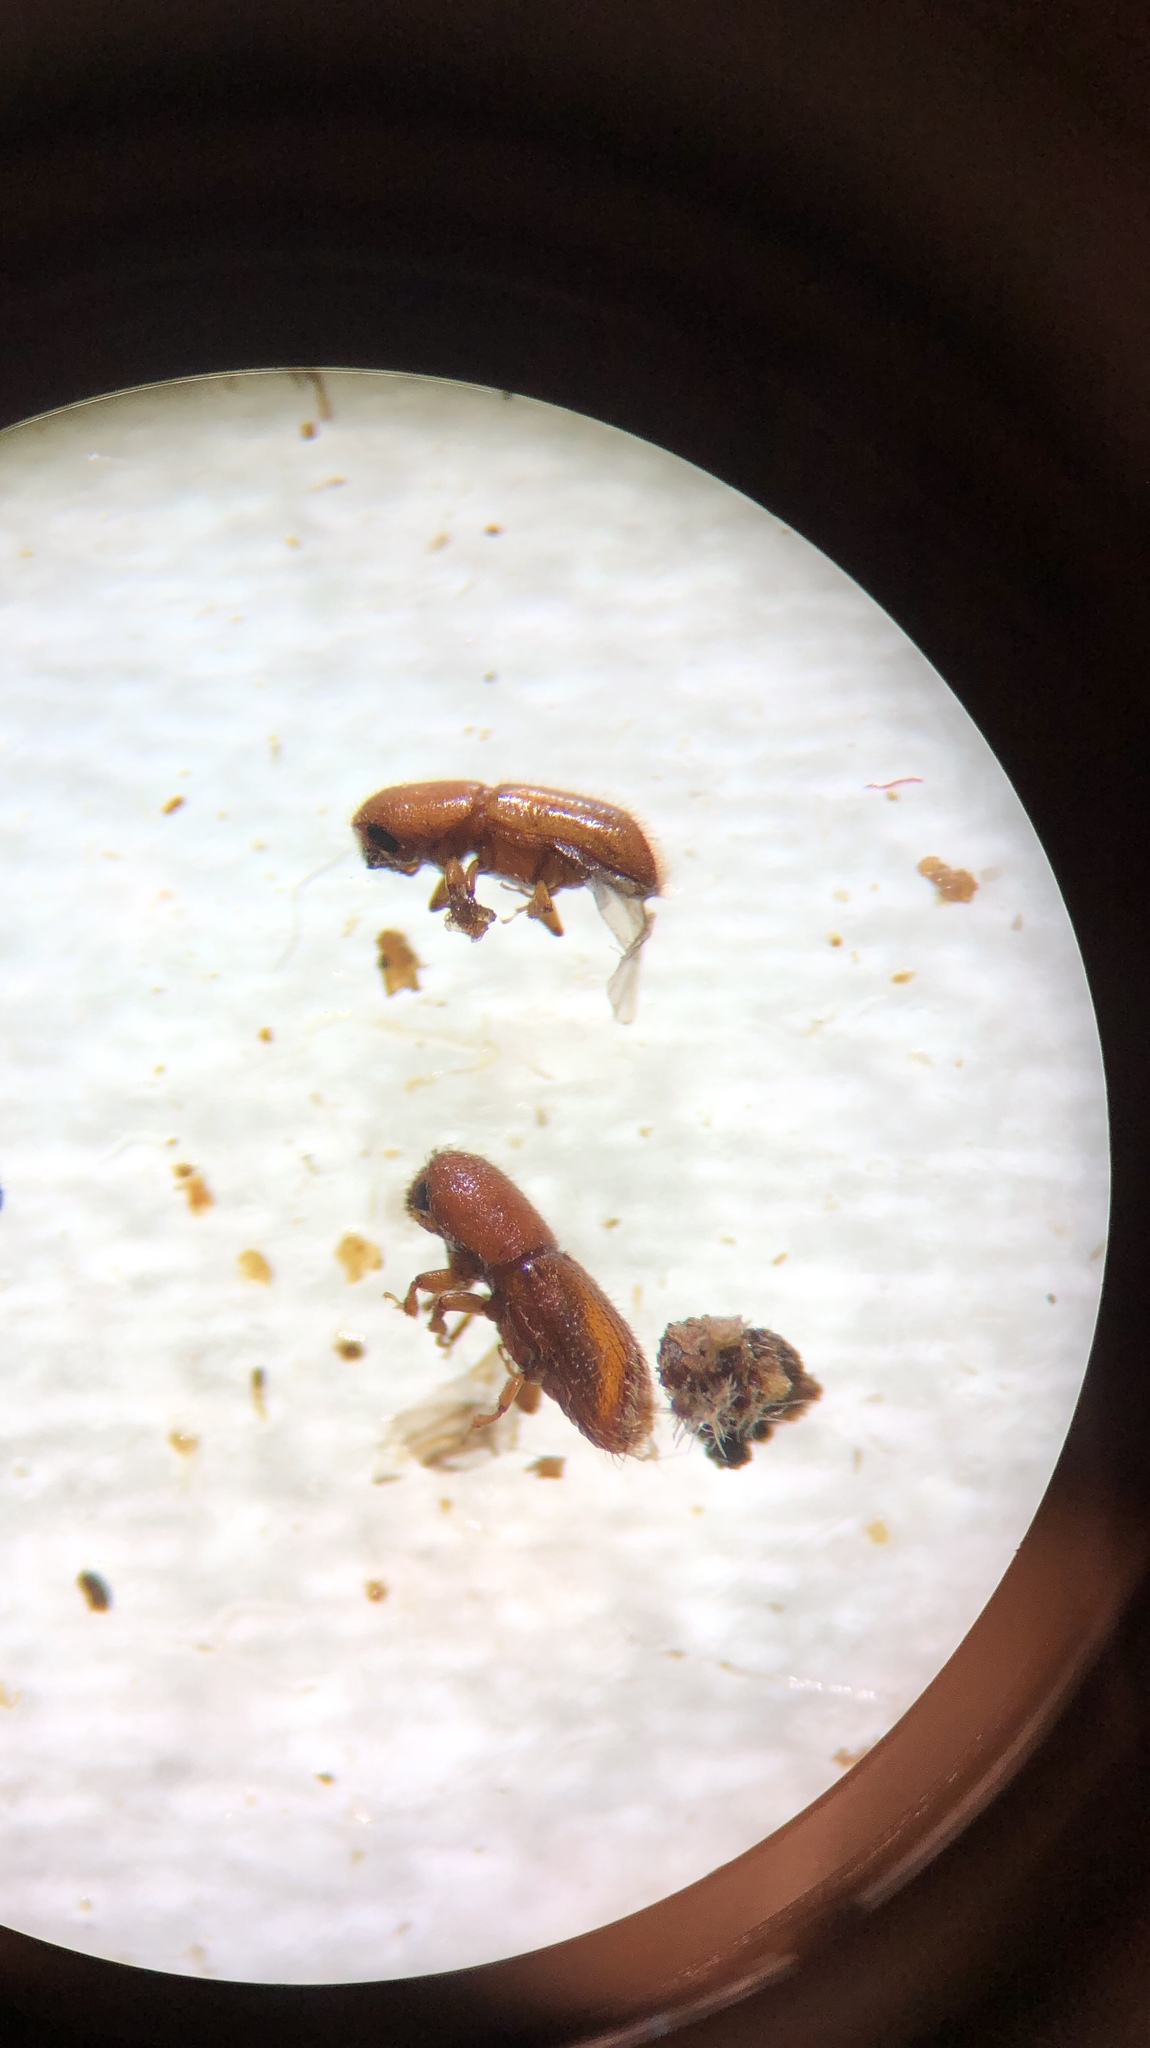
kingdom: Animalia
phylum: Arthropoda
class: Insecta
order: Coleoptera
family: Curculionidae
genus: Dryoxylon
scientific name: Dryoxylon onoharaensis
